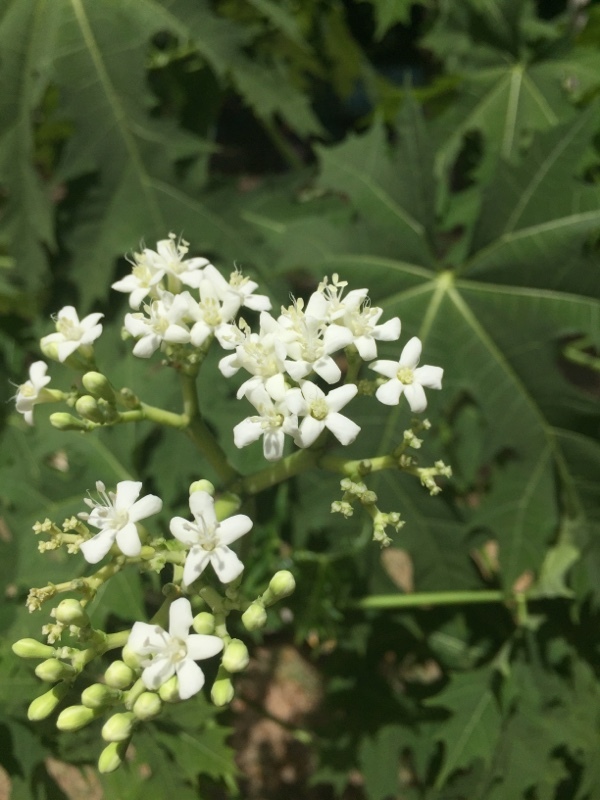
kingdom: Plantae
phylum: Tracheophyta
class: Magnoliopsida
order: Malpighiales
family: Euphorbiaceae
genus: Cnidoscolus
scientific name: Cnidoscolus aconitifolius
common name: Cabbage-star
